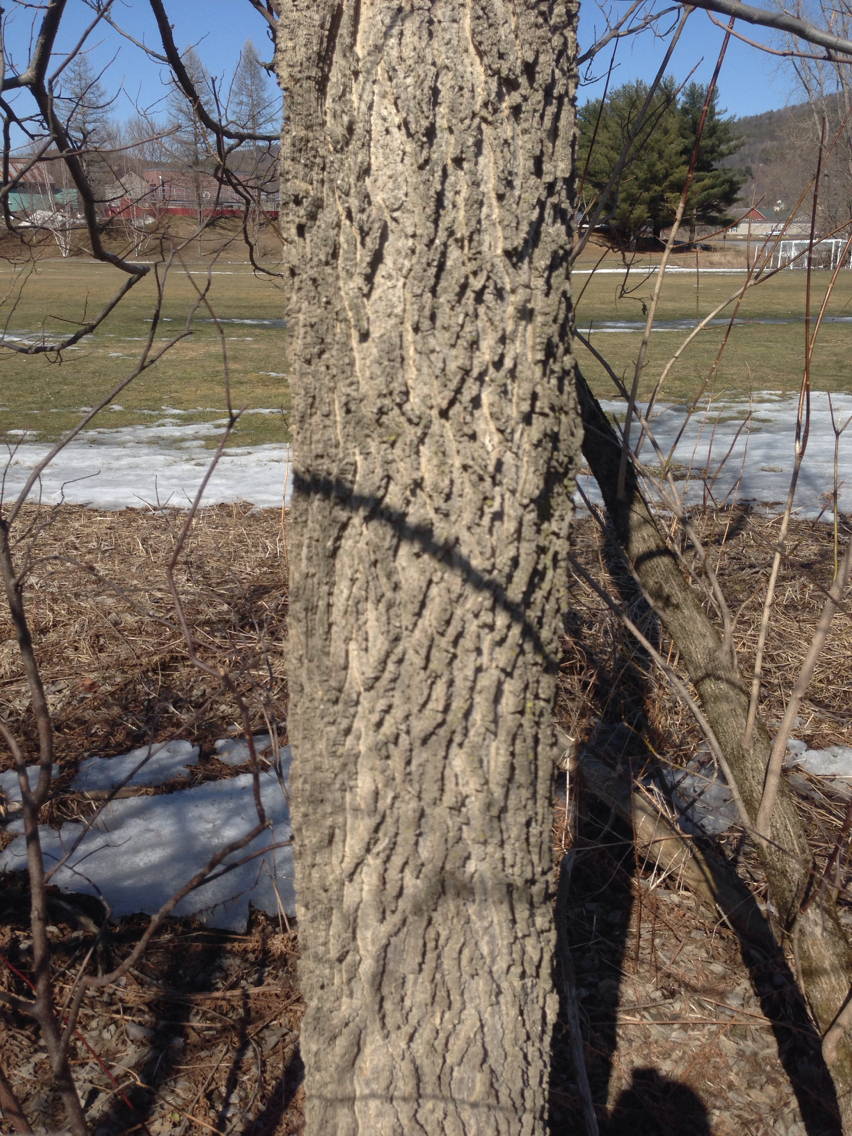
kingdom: Plantae
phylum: Tracheophyta
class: Magnoliopsida
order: Rosales
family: Cannabaceae
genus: Celtis
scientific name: Celtis occidentalis
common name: Common hackberry
